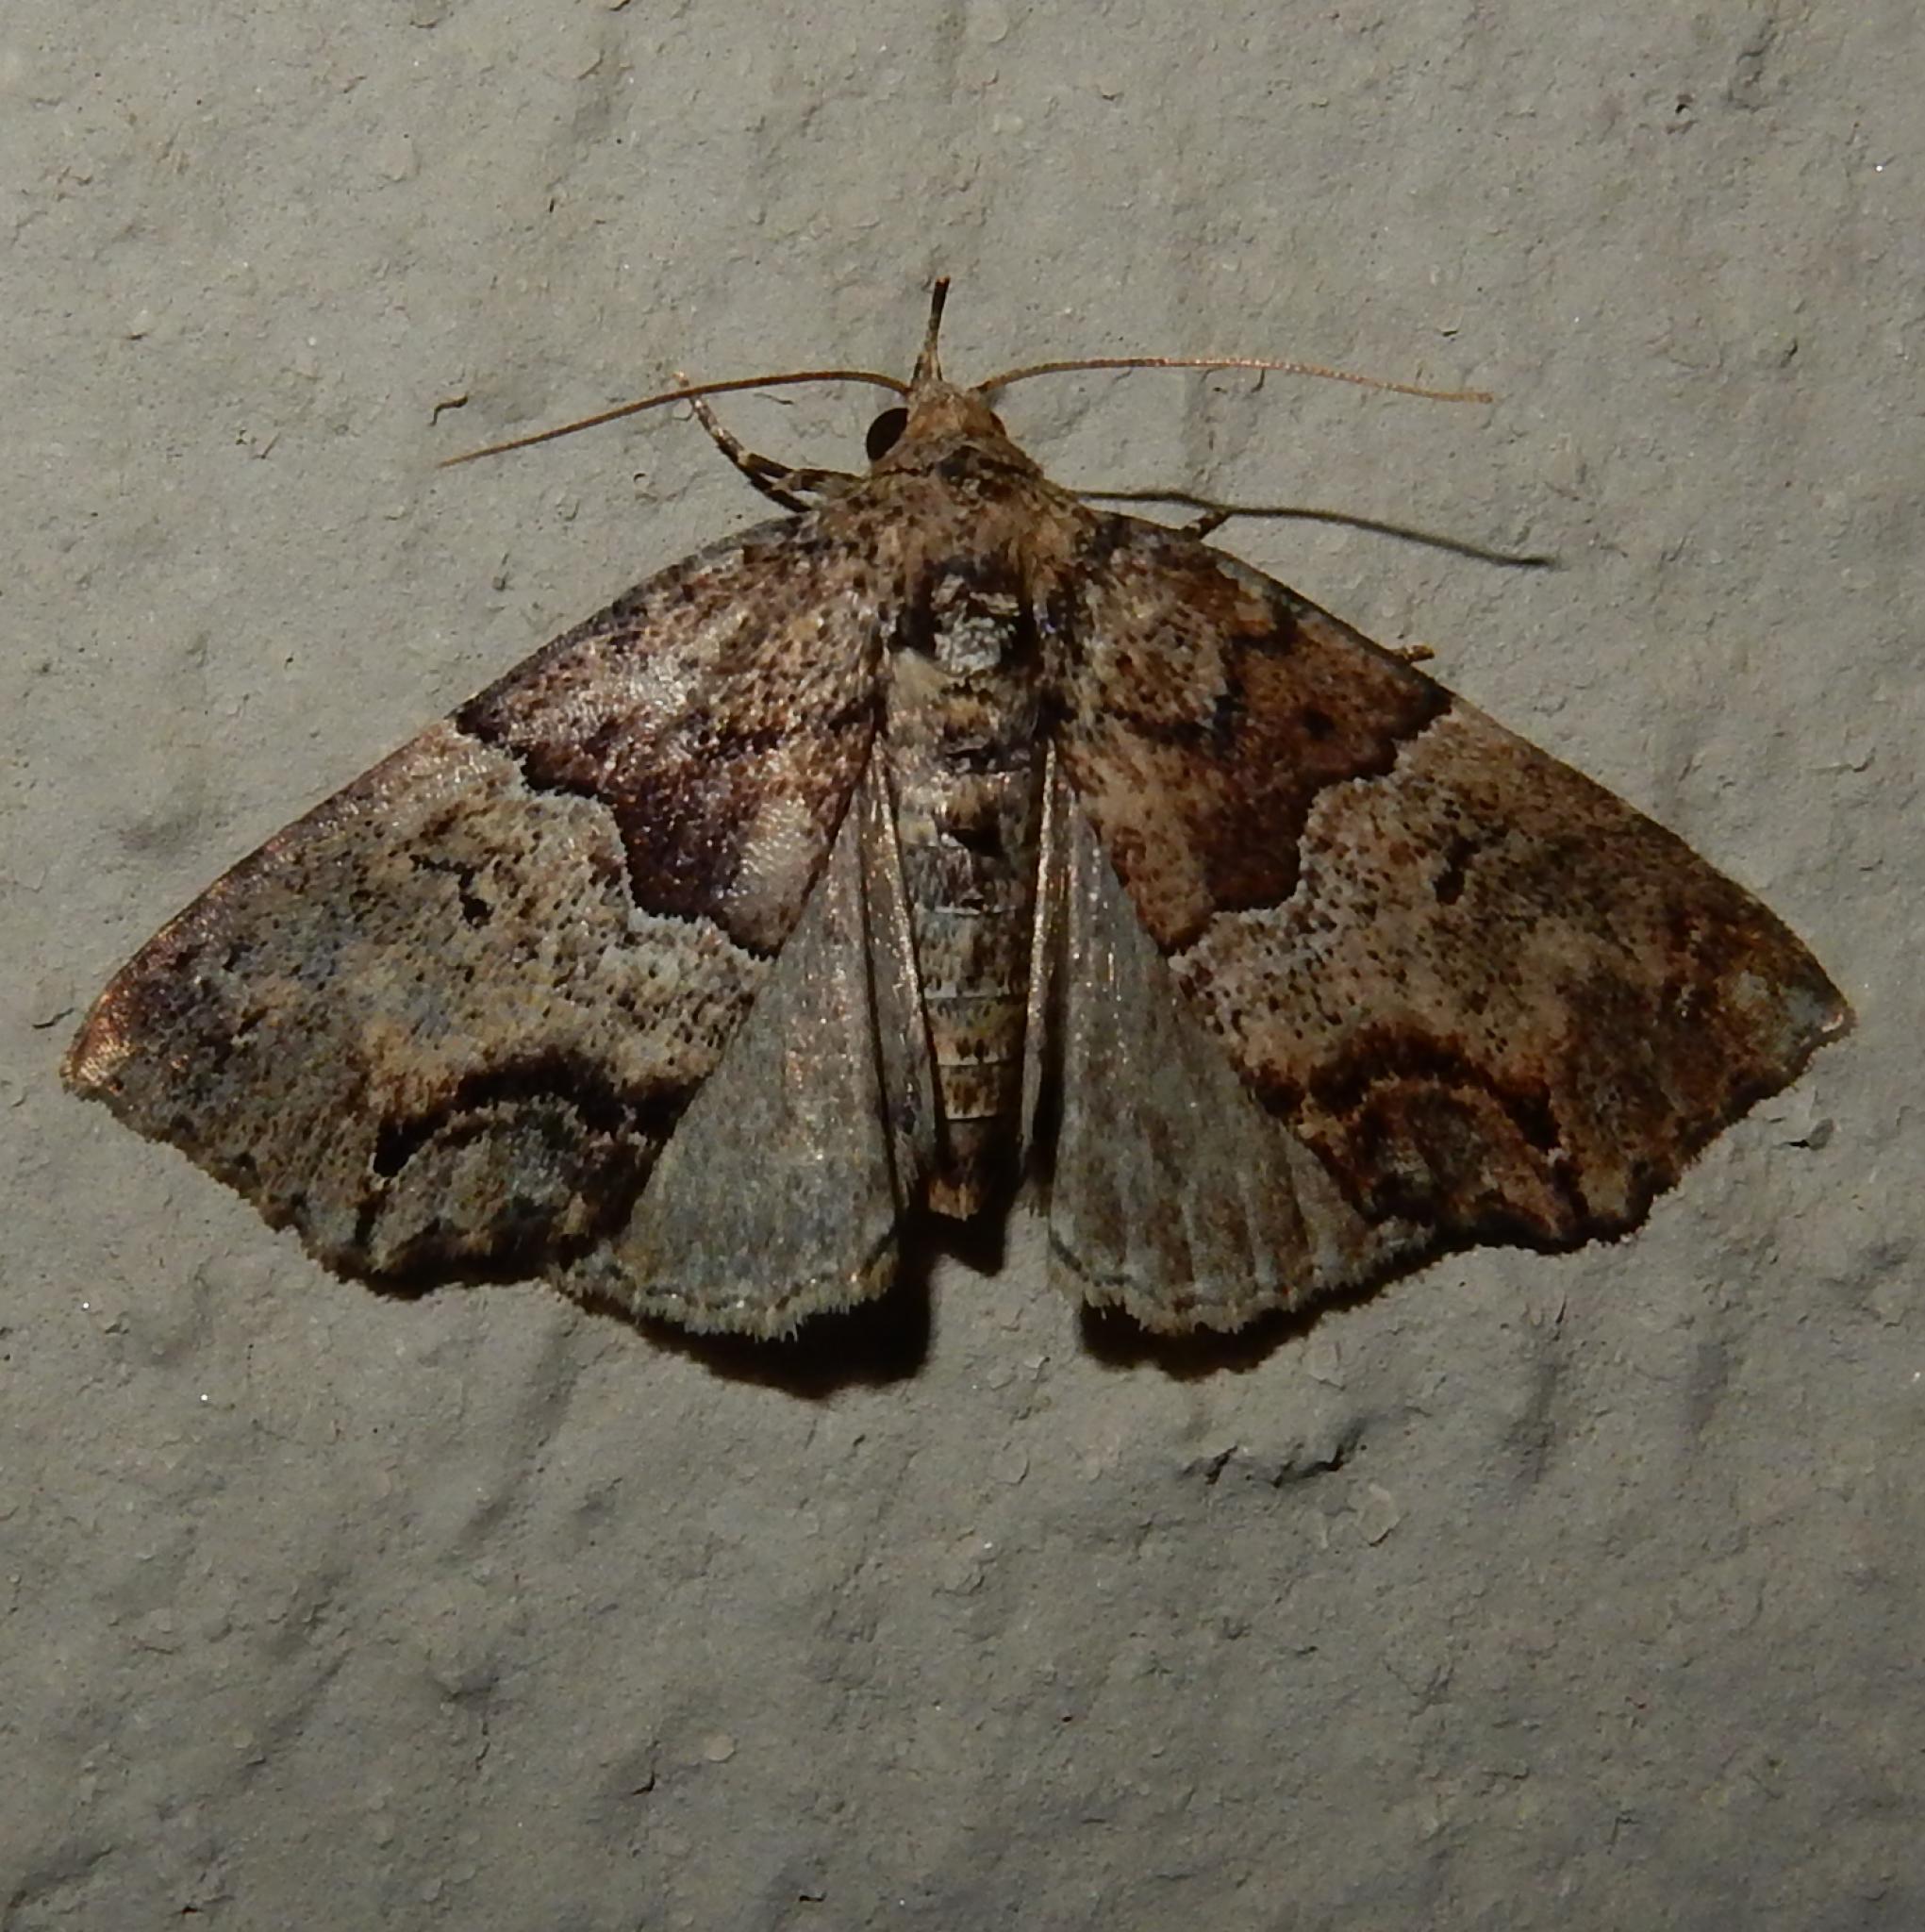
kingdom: Animalia
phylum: Arthropoda
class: Insecta
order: Lepidoptera
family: Erebidae
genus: Sarmatia
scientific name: Sarmatia interitalis
